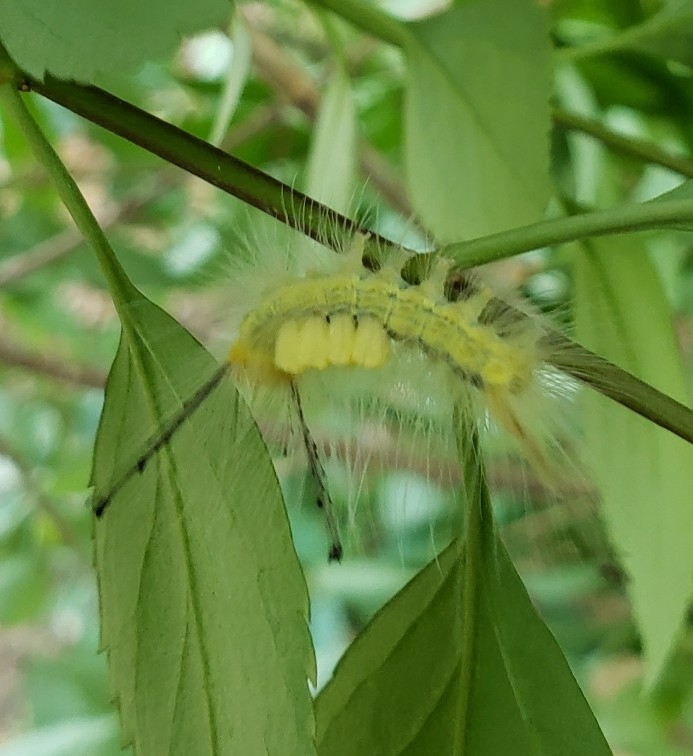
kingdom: Animalia
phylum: Arthropoda
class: Insecta
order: Lepidoptera
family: Erebidae
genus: Orgyia
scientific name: Orgyia definita
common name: Definite tussock moth
